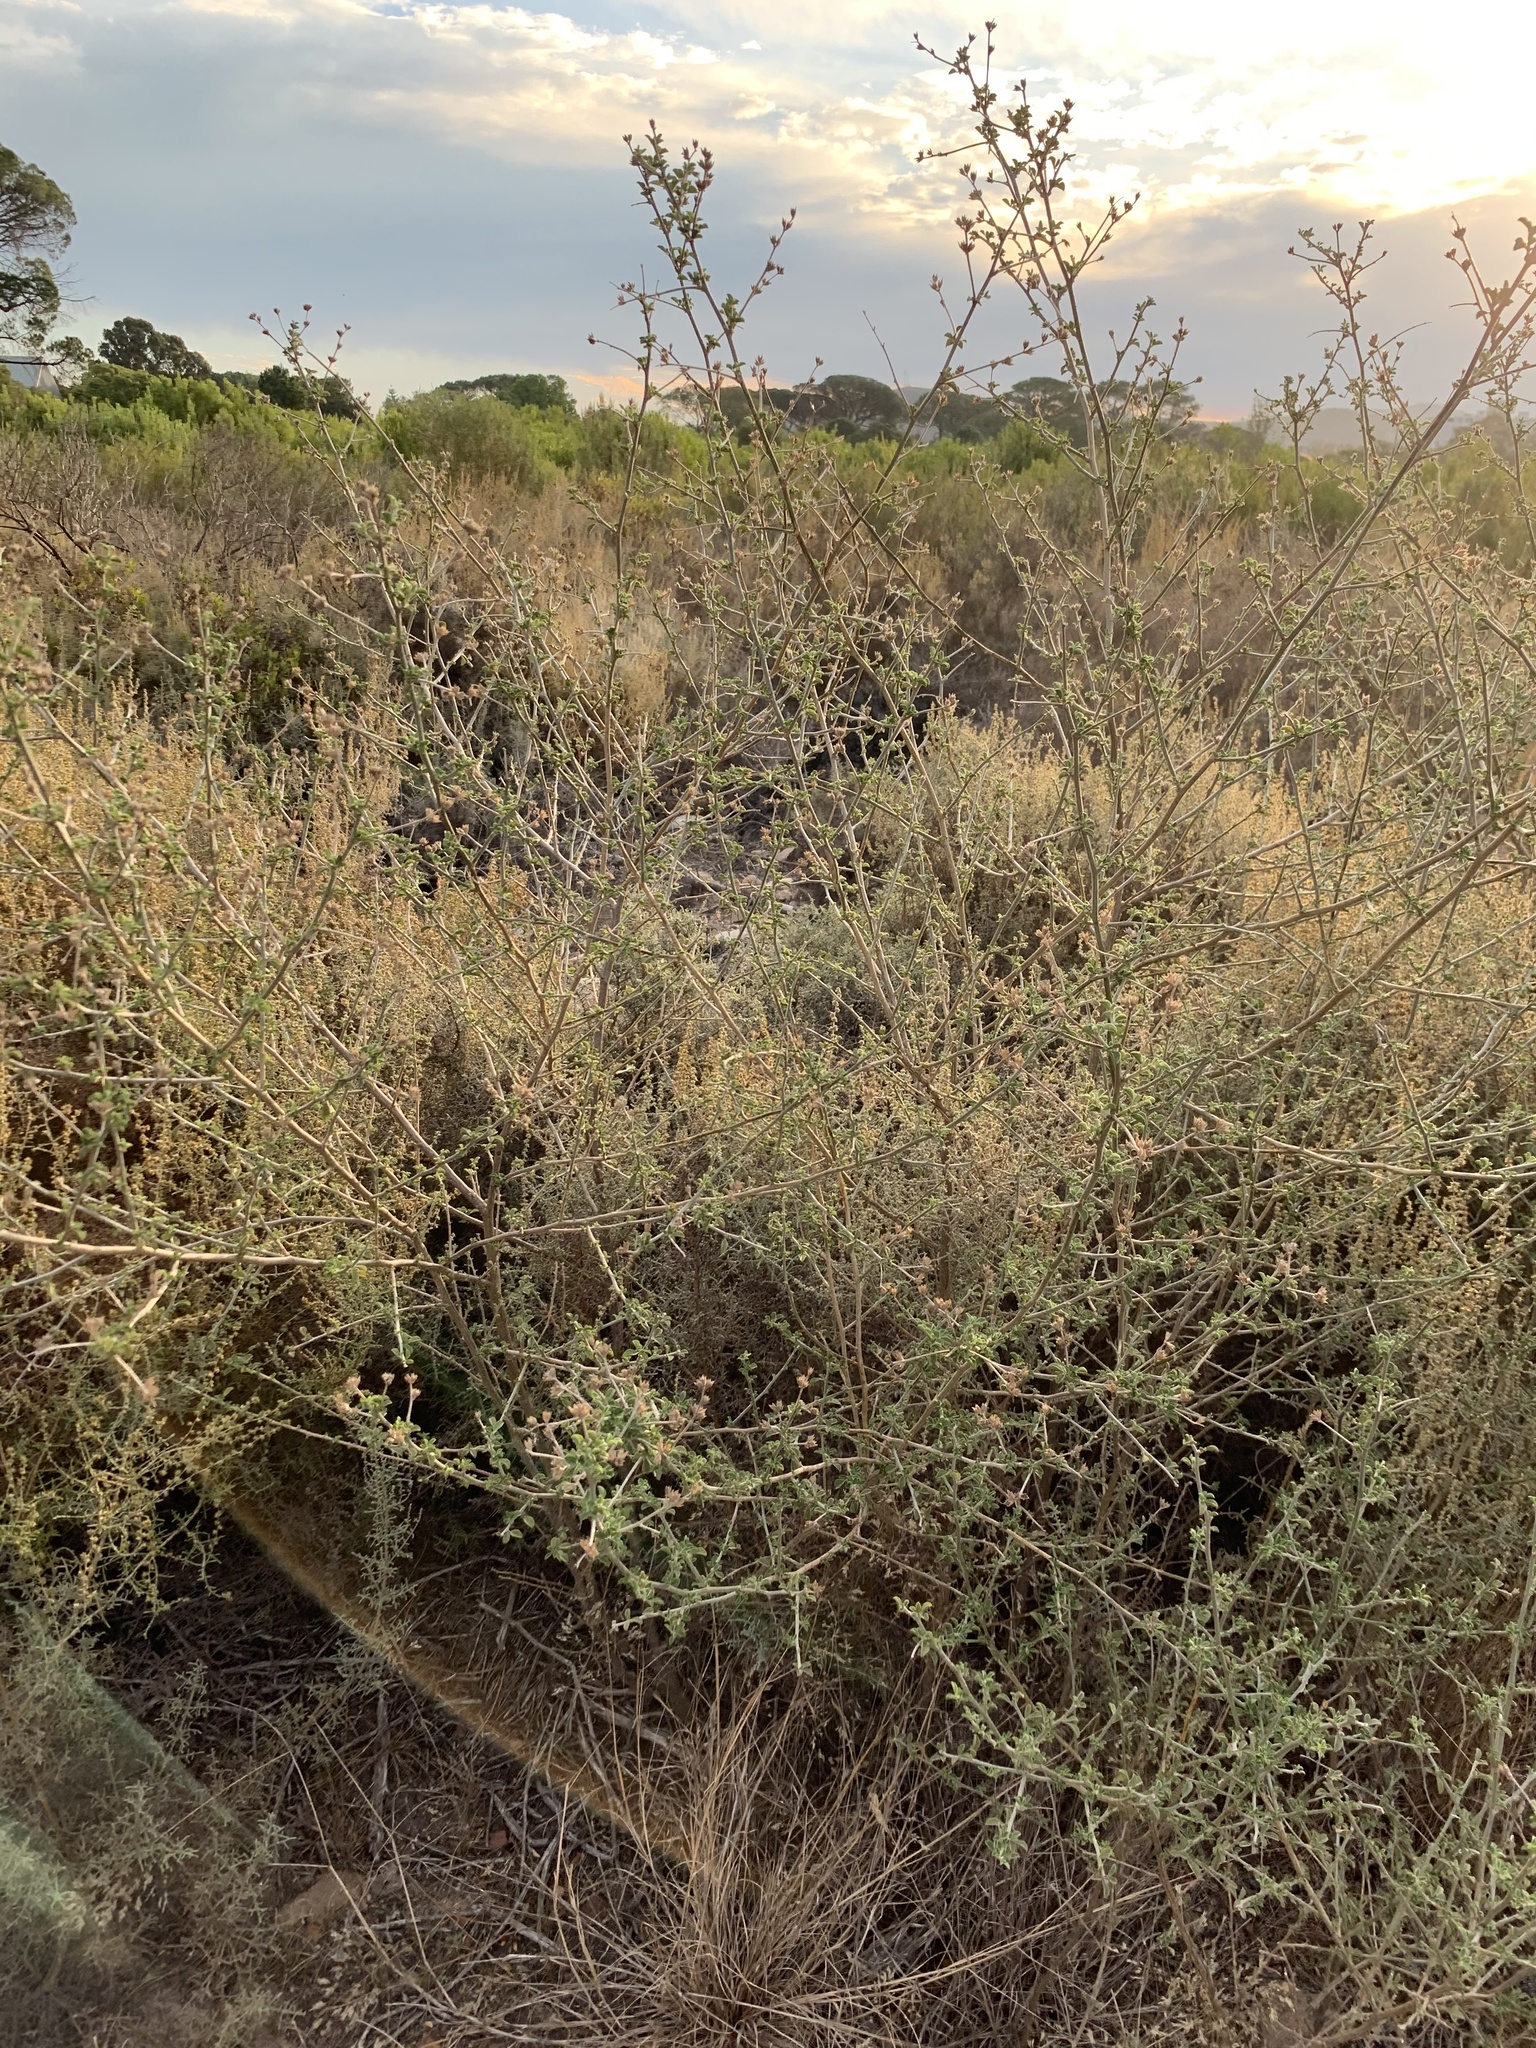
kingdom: Plantae
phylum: Tracheophyta
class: Magnoliopsida
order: Fabales
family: Fabaceae
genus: Psoralea
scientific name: Psoralea hirta
